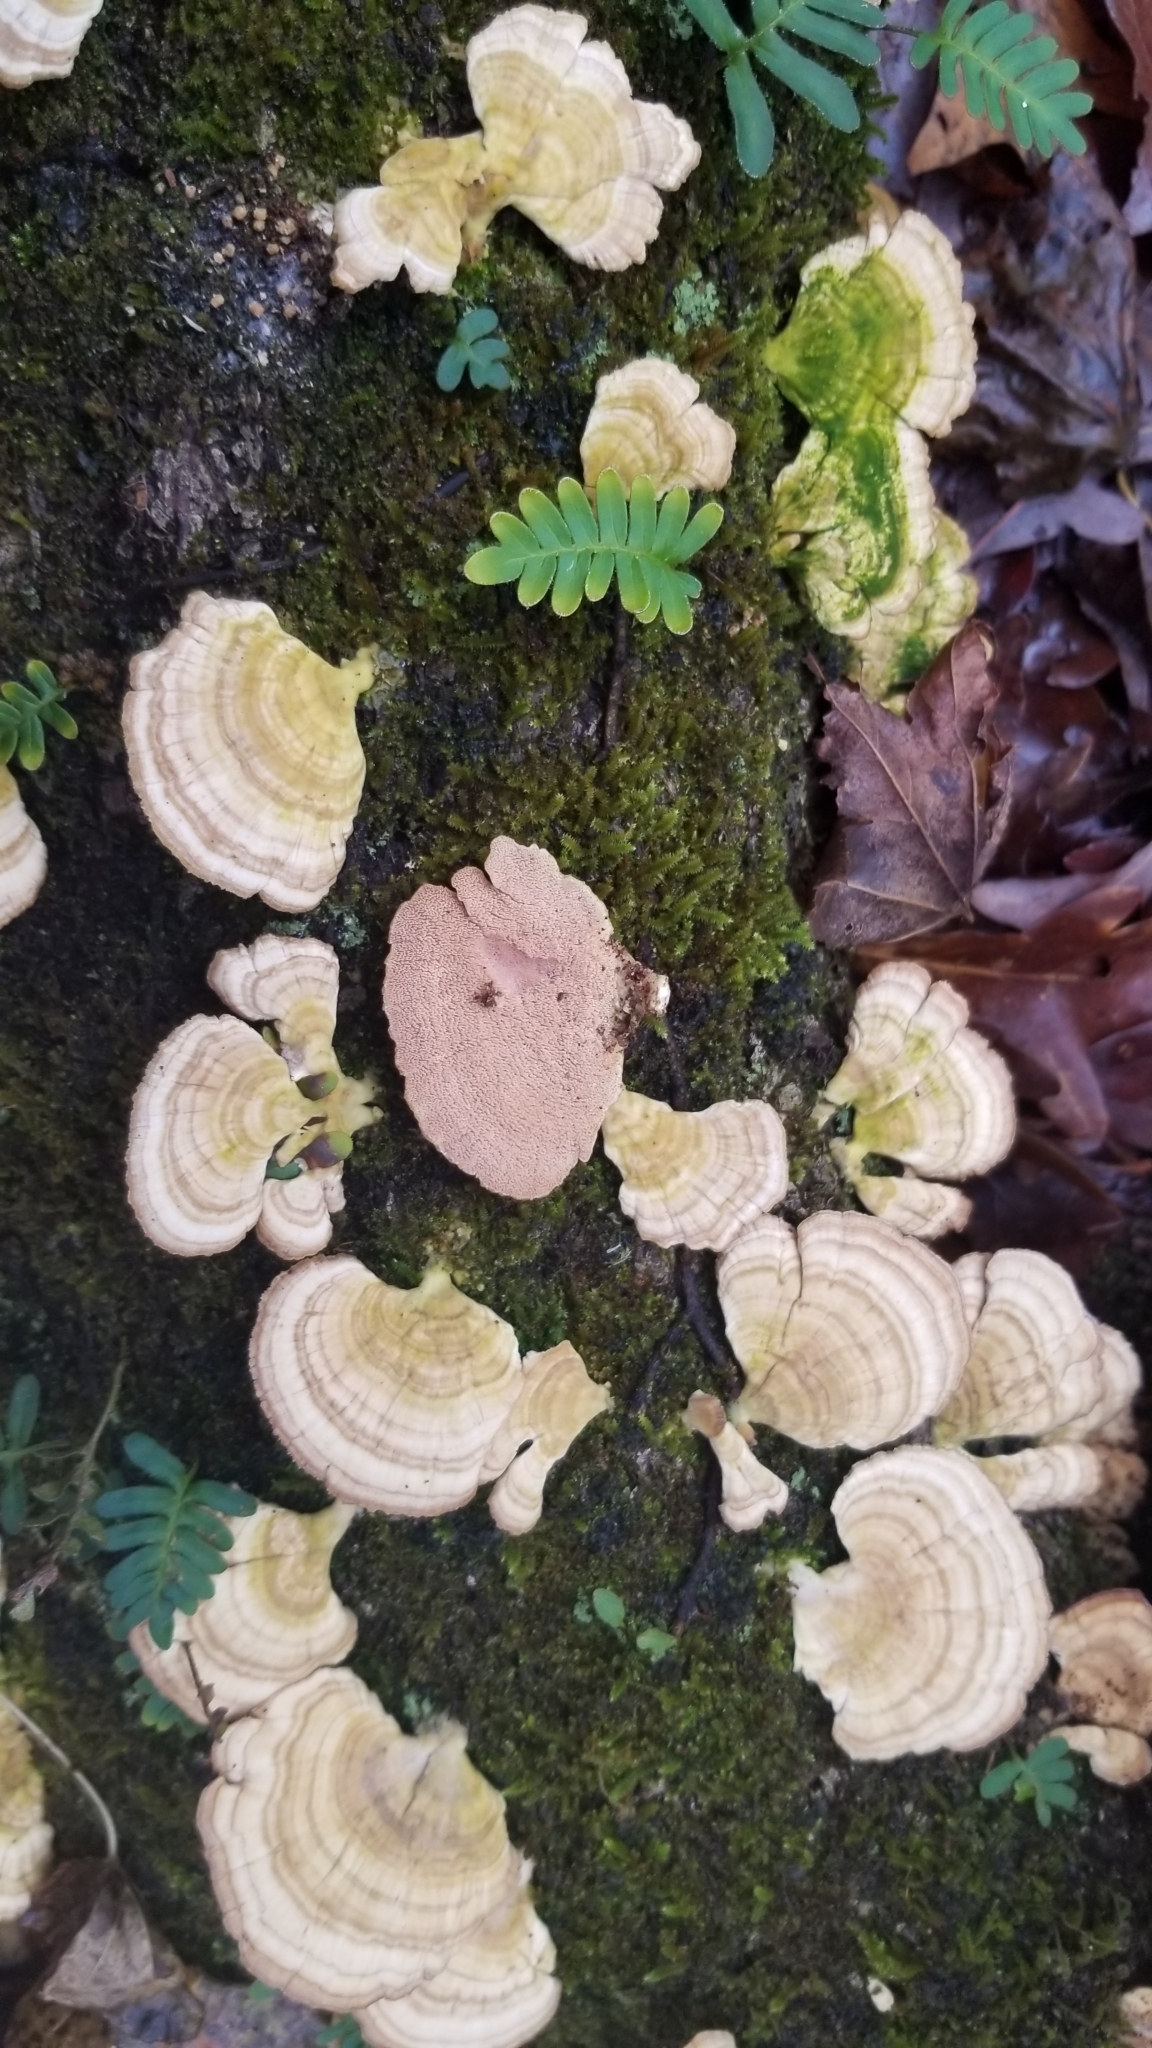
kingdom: Fungi
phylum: Basidiomycota
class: Agaricomycetes
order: Hymenochaetales
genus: Trichaptum
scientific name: Trichaptum biforme
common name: Violet-toothed polypore
